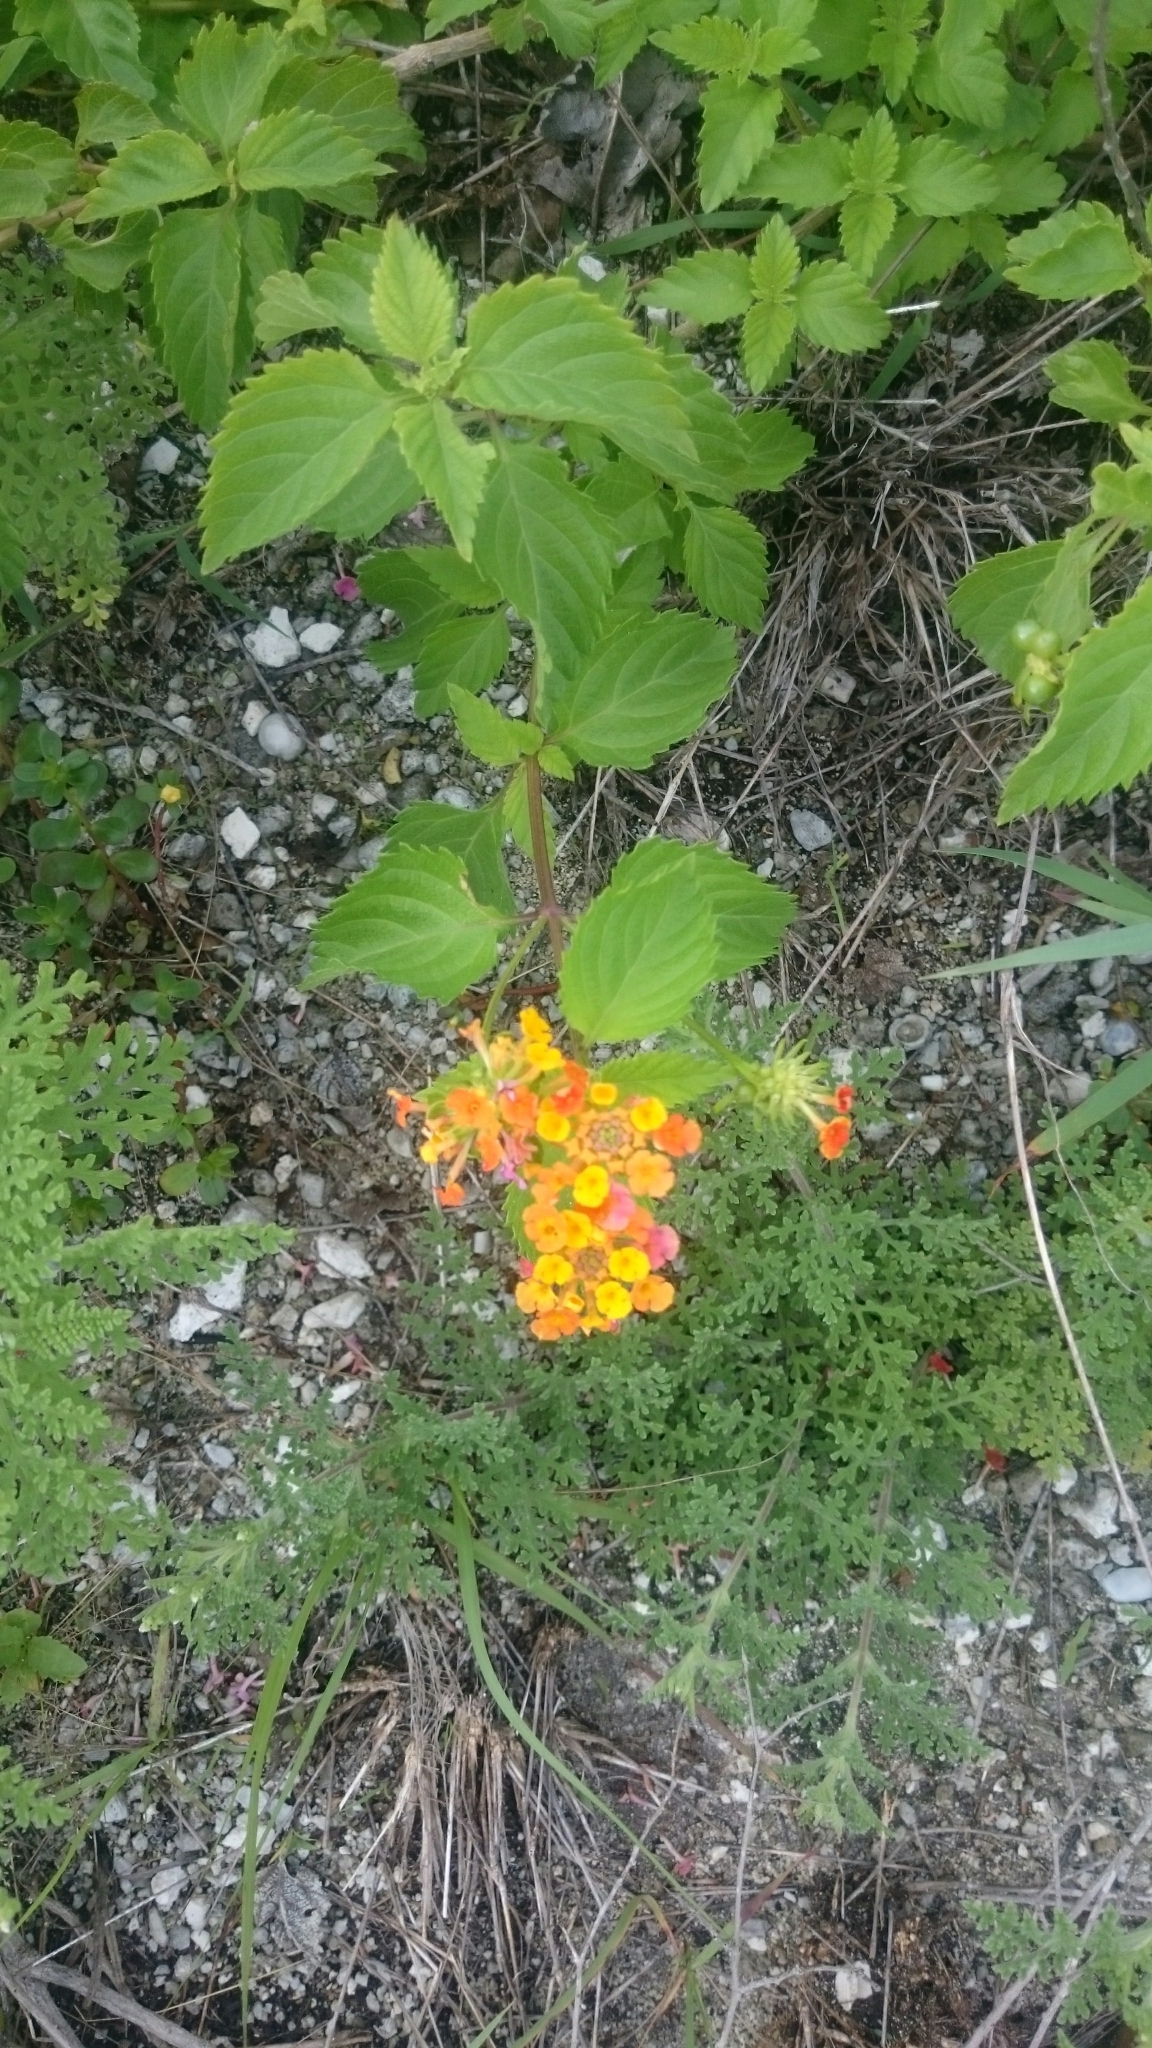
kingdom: Plantae
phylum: Tracheophyta
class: Magnoliopsida
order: Lamiales
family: Verbenaceae
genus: Lantana
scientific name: Lantana camara
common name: Lantana
